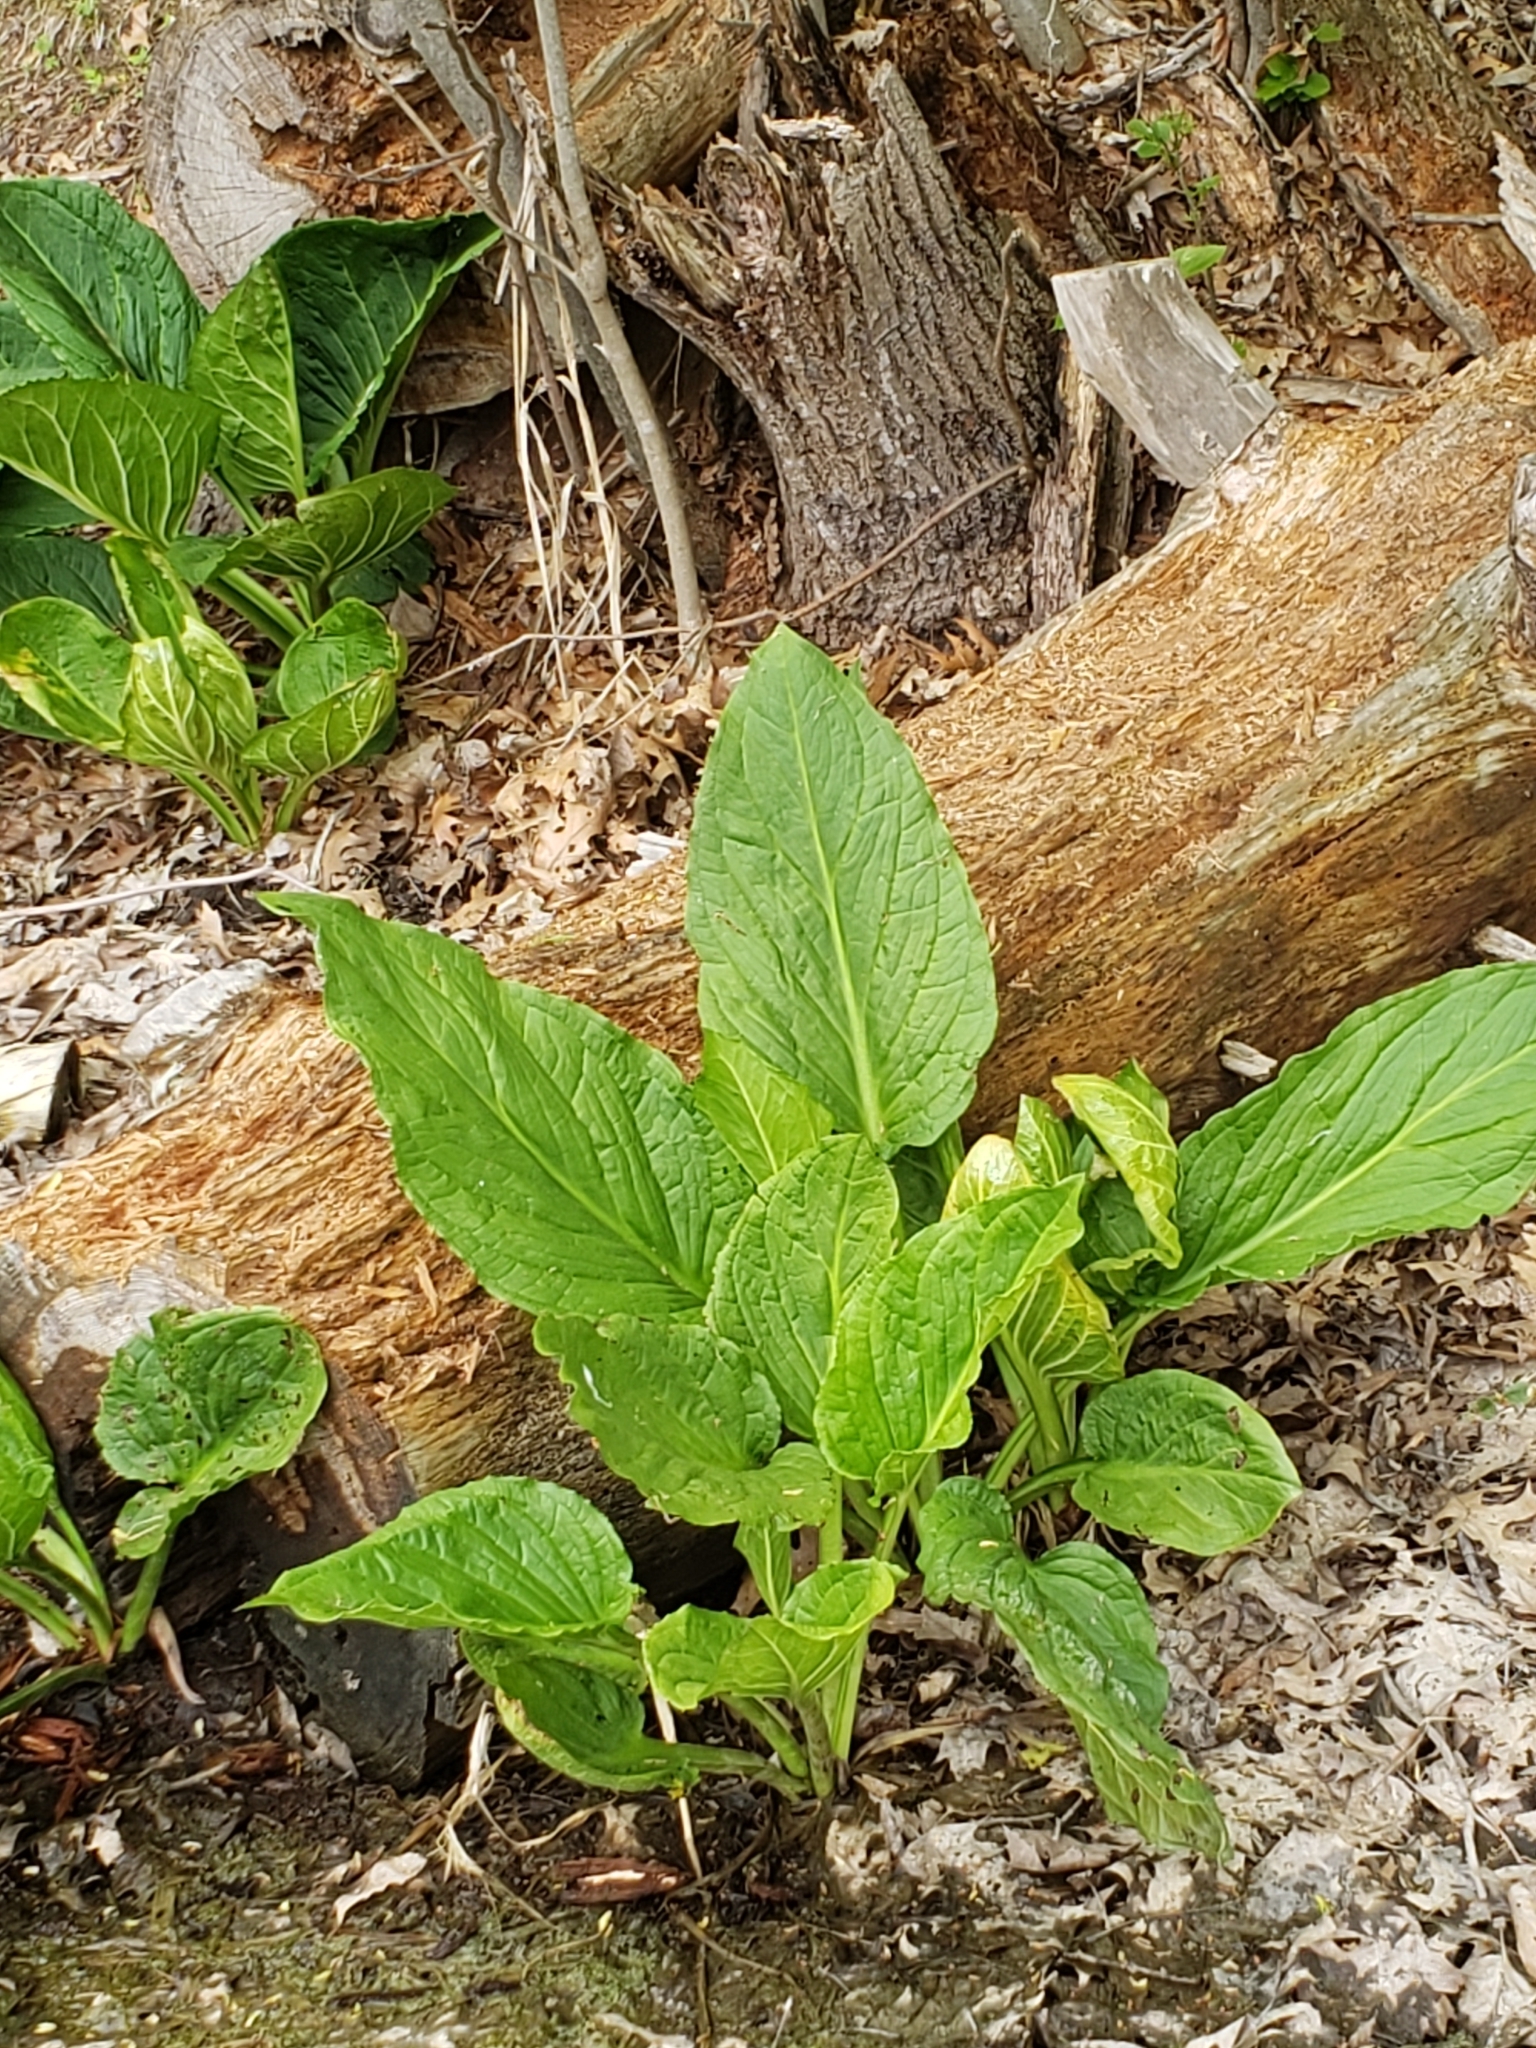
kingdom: Plantae
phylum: Tracheophyta
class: Liliopsida
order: Alismatales
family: Araceae
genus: Symplocarpus
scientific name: Symplocarpus foetidus
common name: Eastern skunk cabbage
